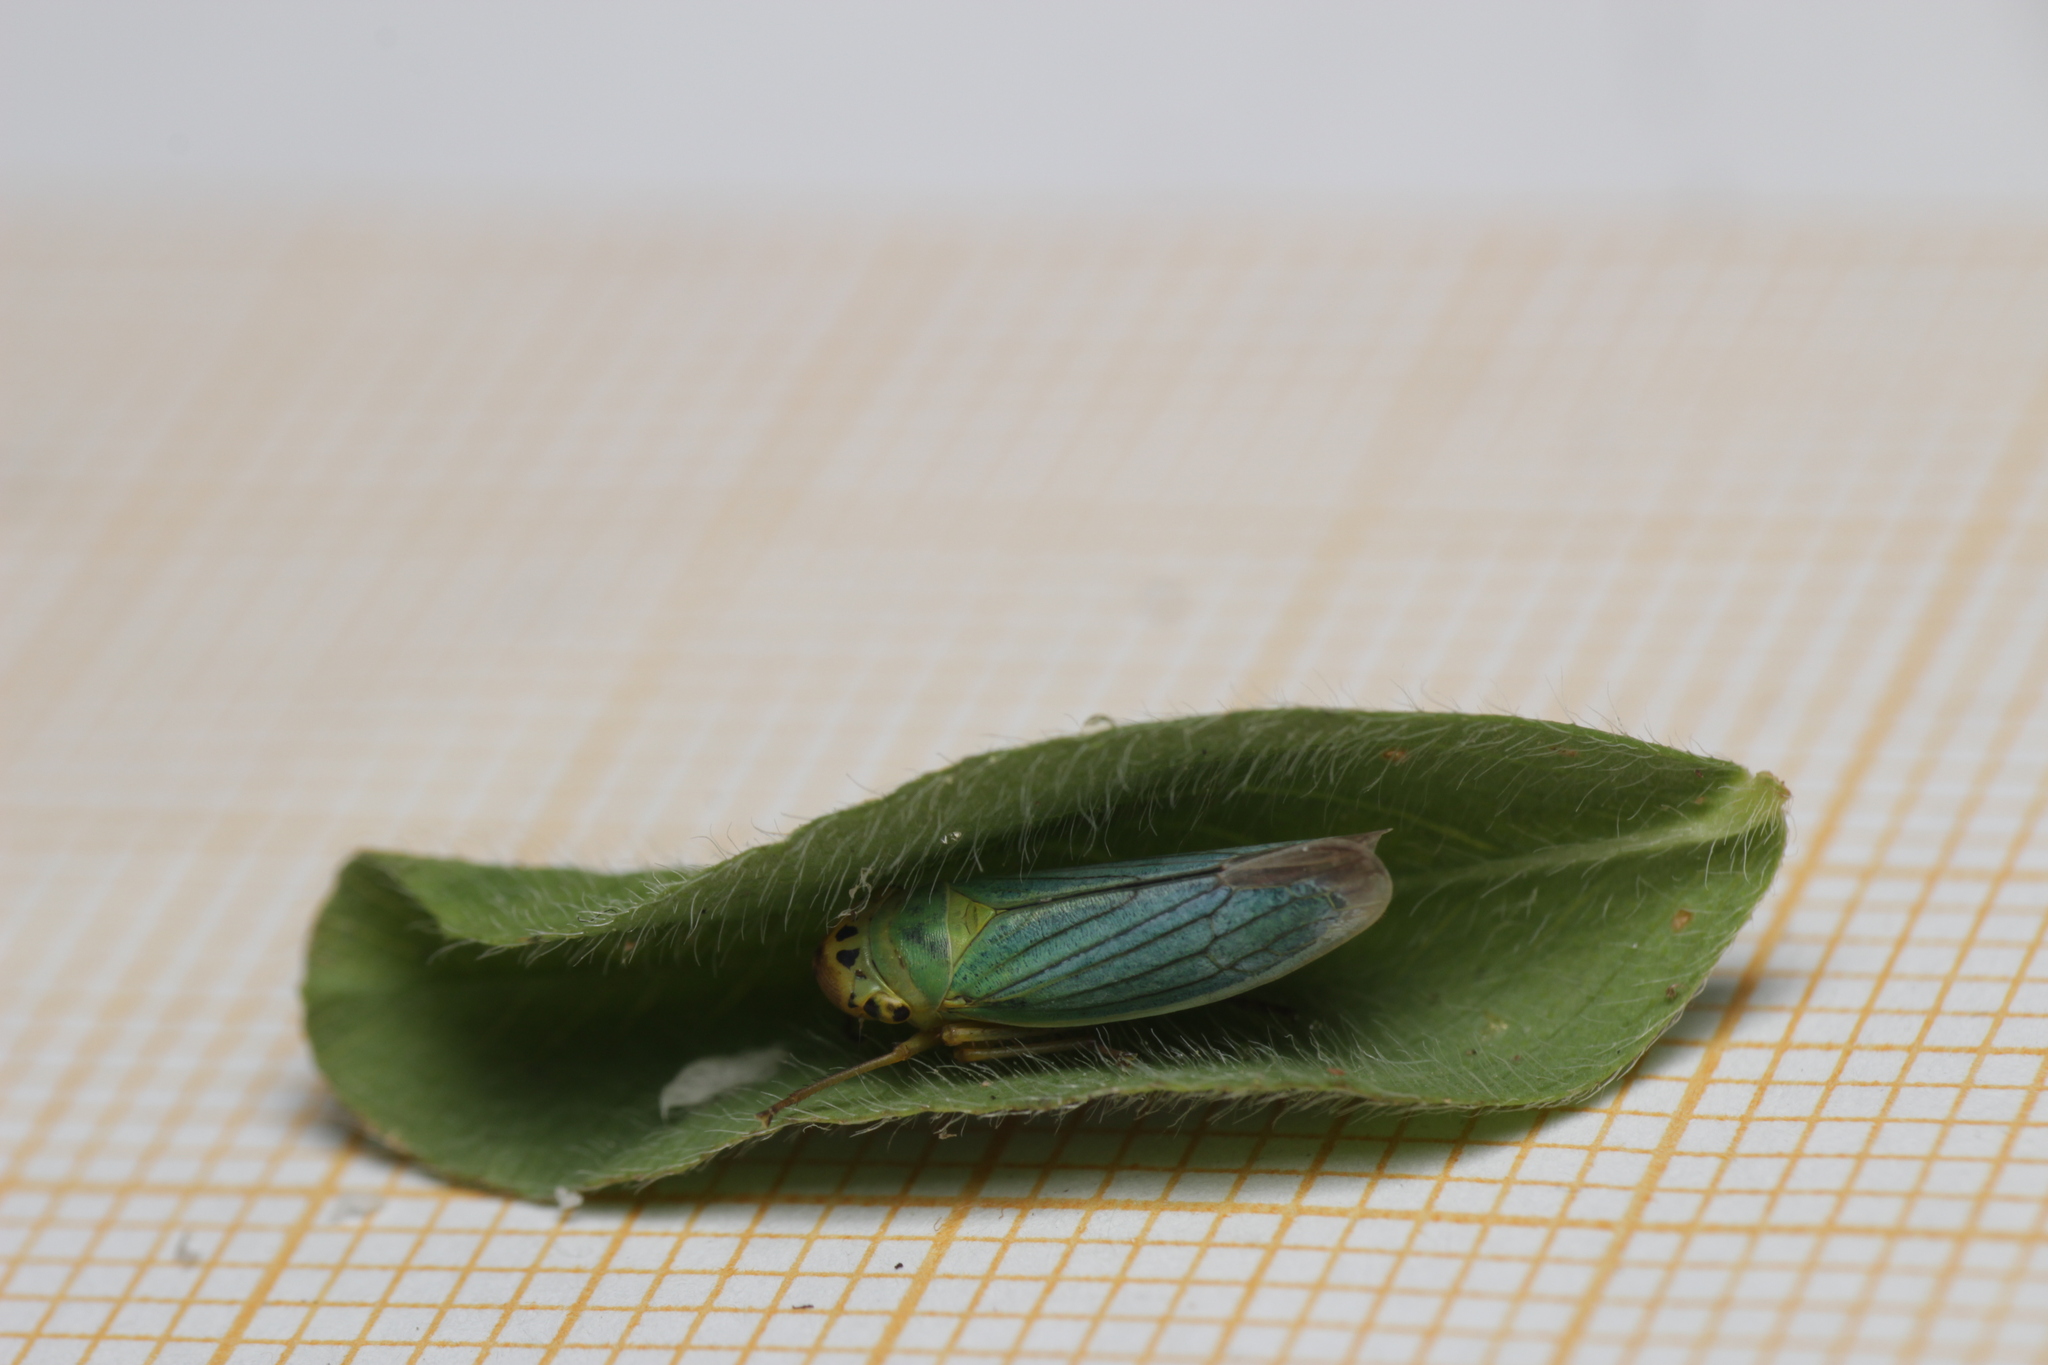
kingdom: Animalia
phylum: Arthropoda
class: Insecta
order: Hemiptera
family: Cicadellidae
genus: Cicadella
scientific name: Cicadella viridis
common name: Leafhopper
